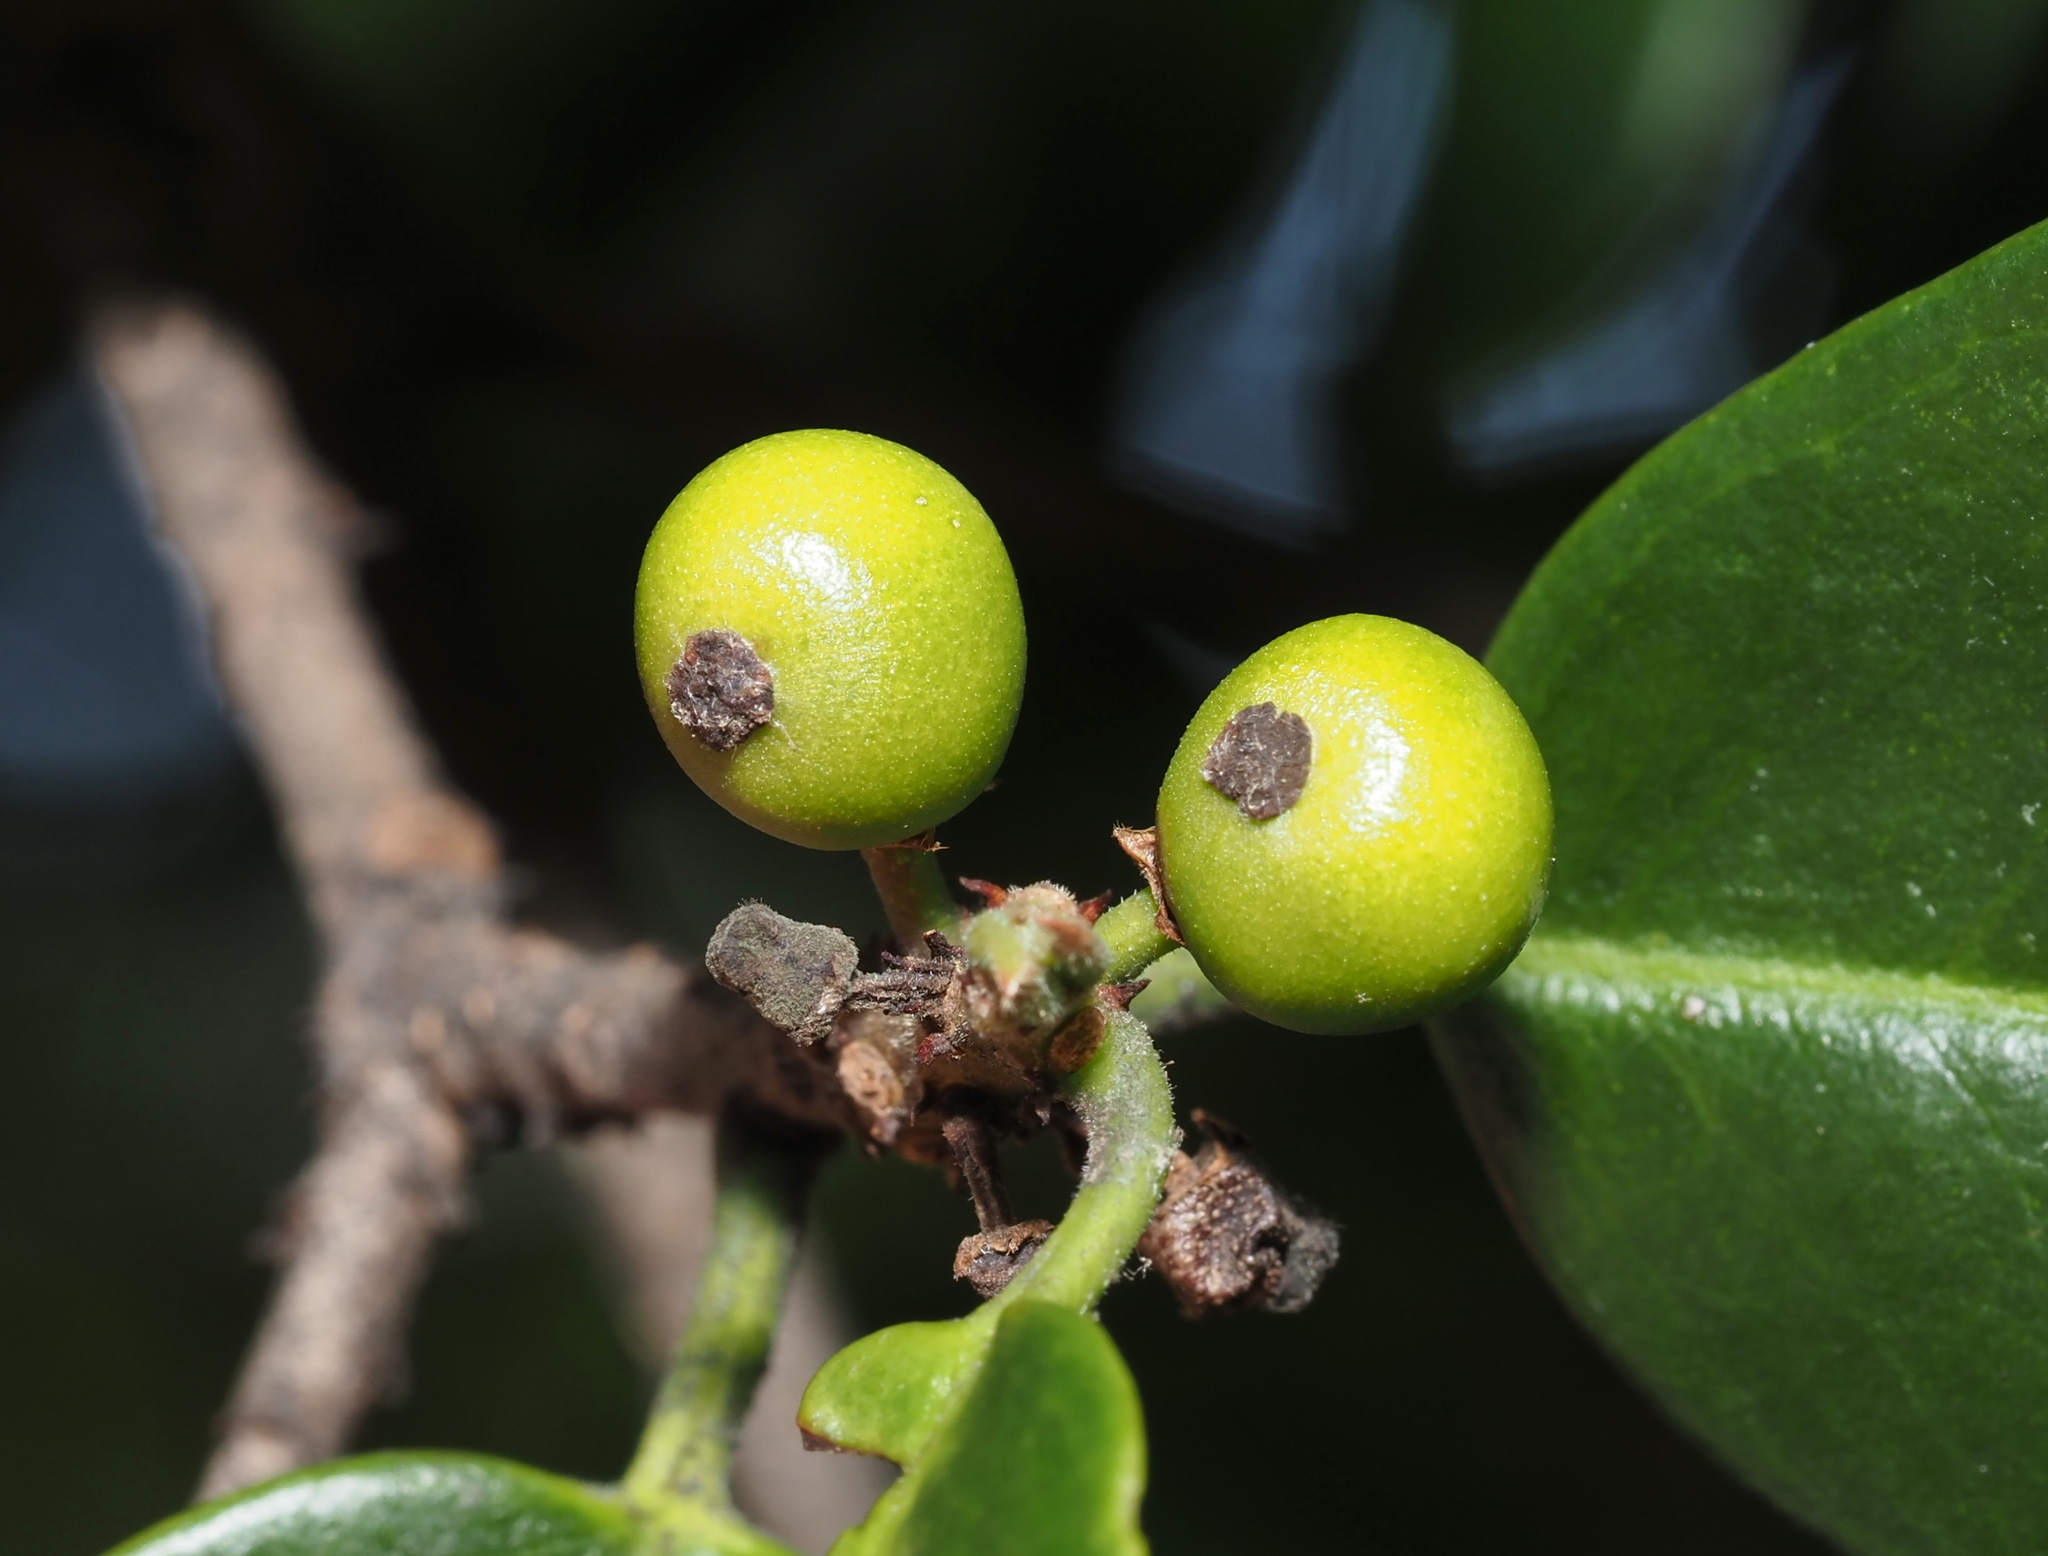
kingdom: Animalia
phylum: Arthropoda
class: Insecta
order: Diptera
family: Cecidomyiidae
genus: Asphondylia
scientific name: Asphondylia ilicicola
